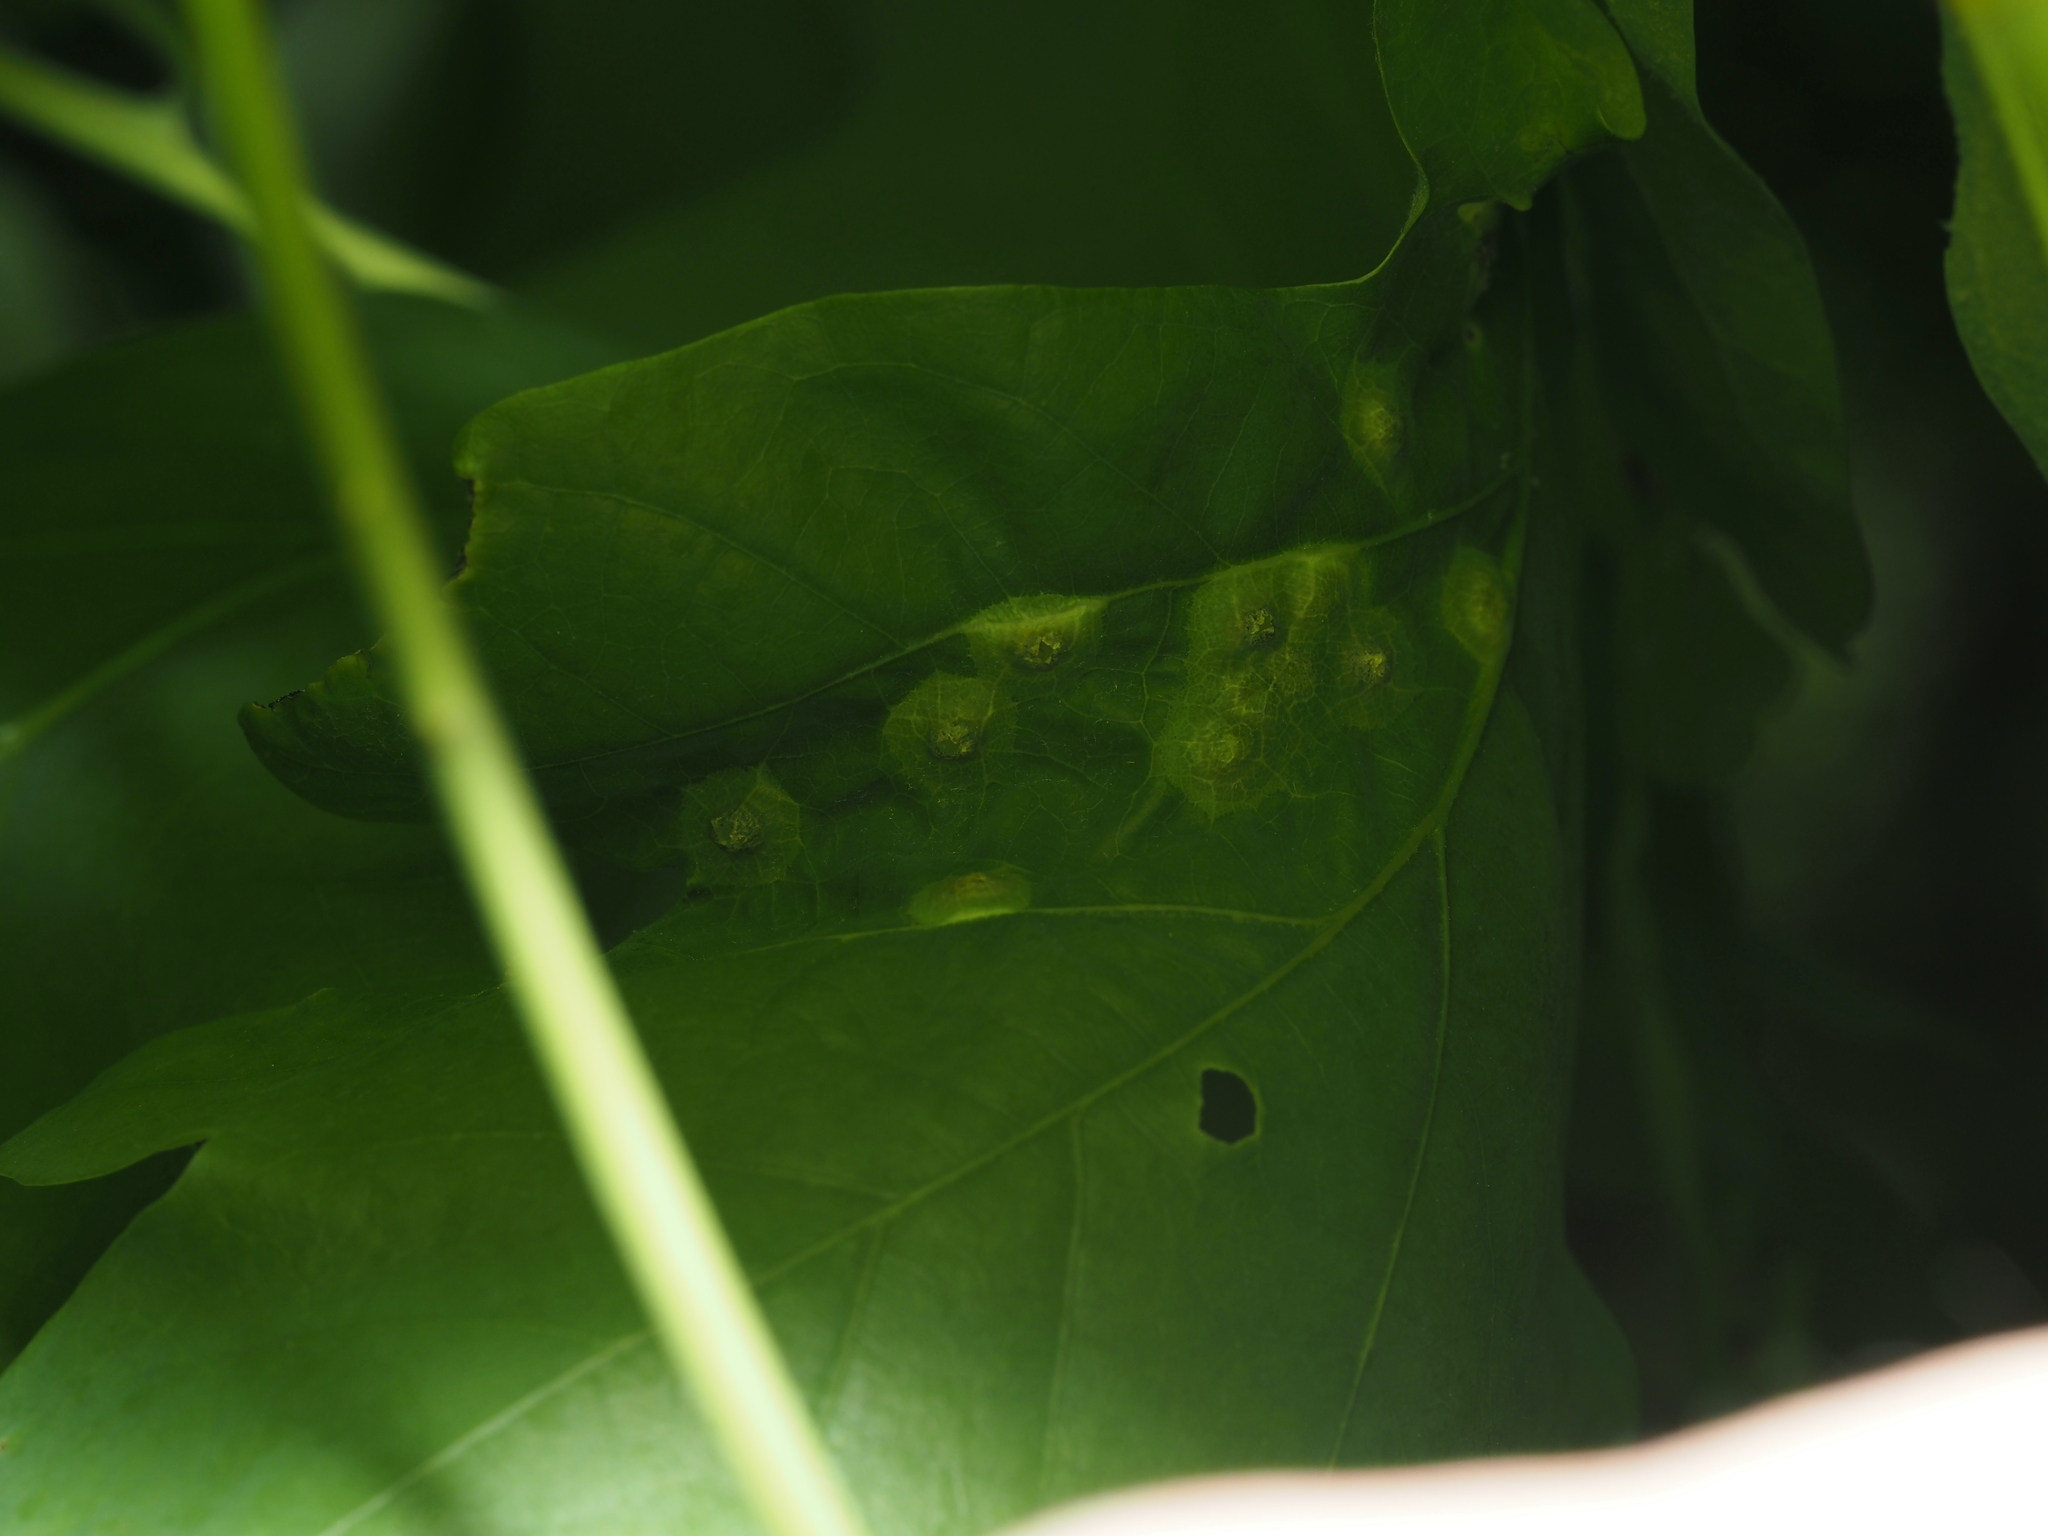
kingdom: Animalia
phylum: Arthropoda
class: Insecta
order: Hymenoptera
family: Cynipidae
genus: Callirhytis
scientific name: Callirhytis
